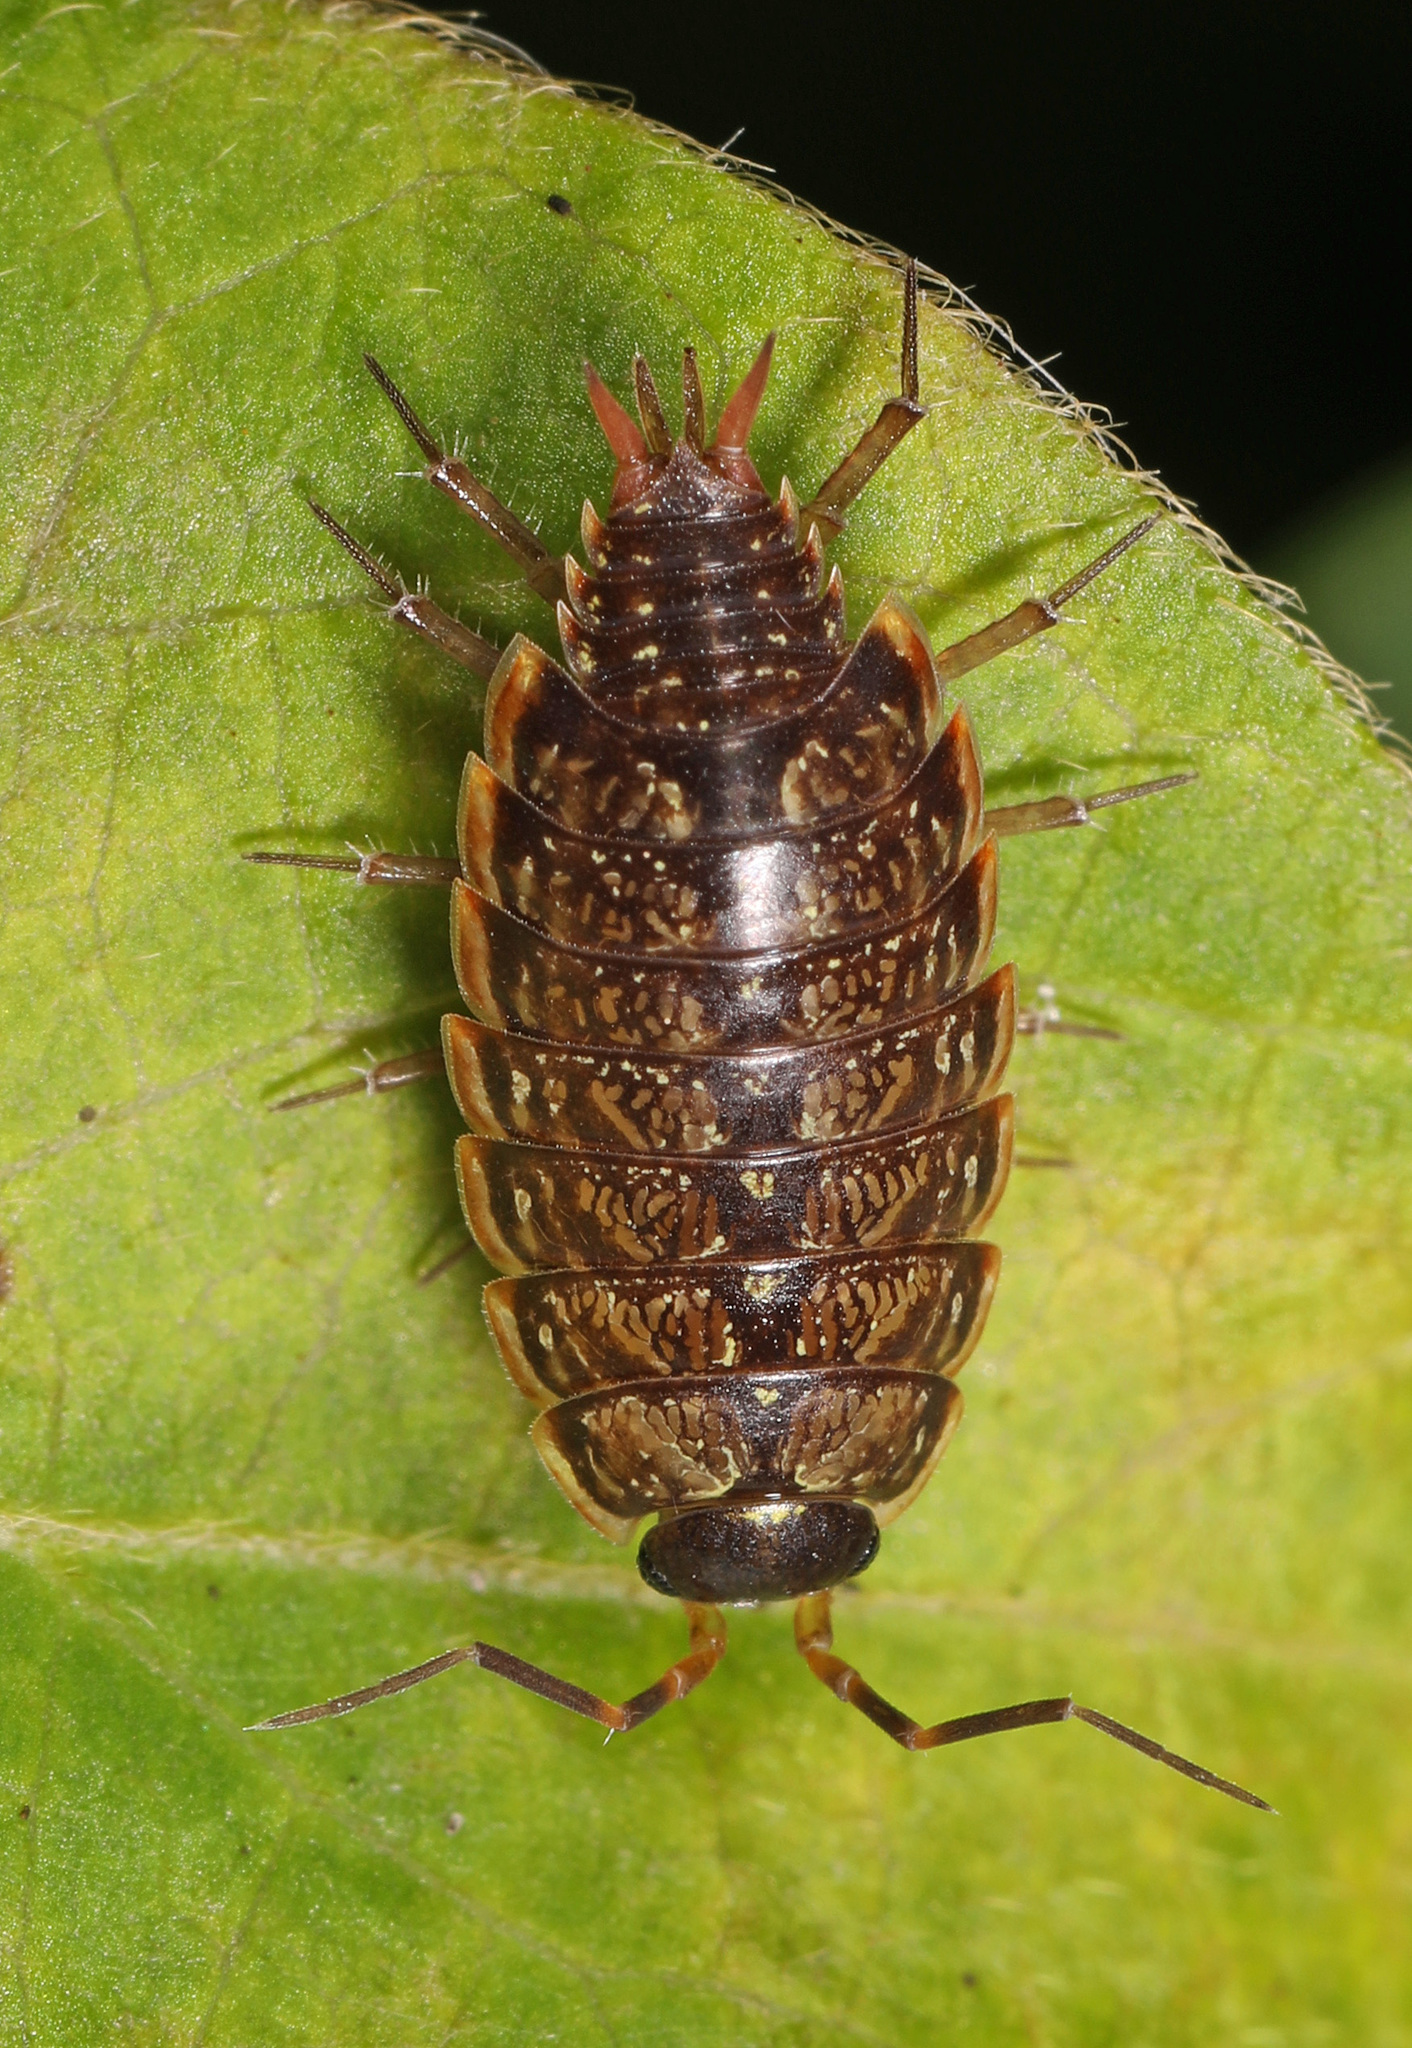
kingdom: Animalia
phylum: Arthropoda
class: Malacostraca
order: Isopoda
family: Philosciidae
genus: Philoscia
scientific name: Philoscia muscorum
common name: Common striped woodlouse
